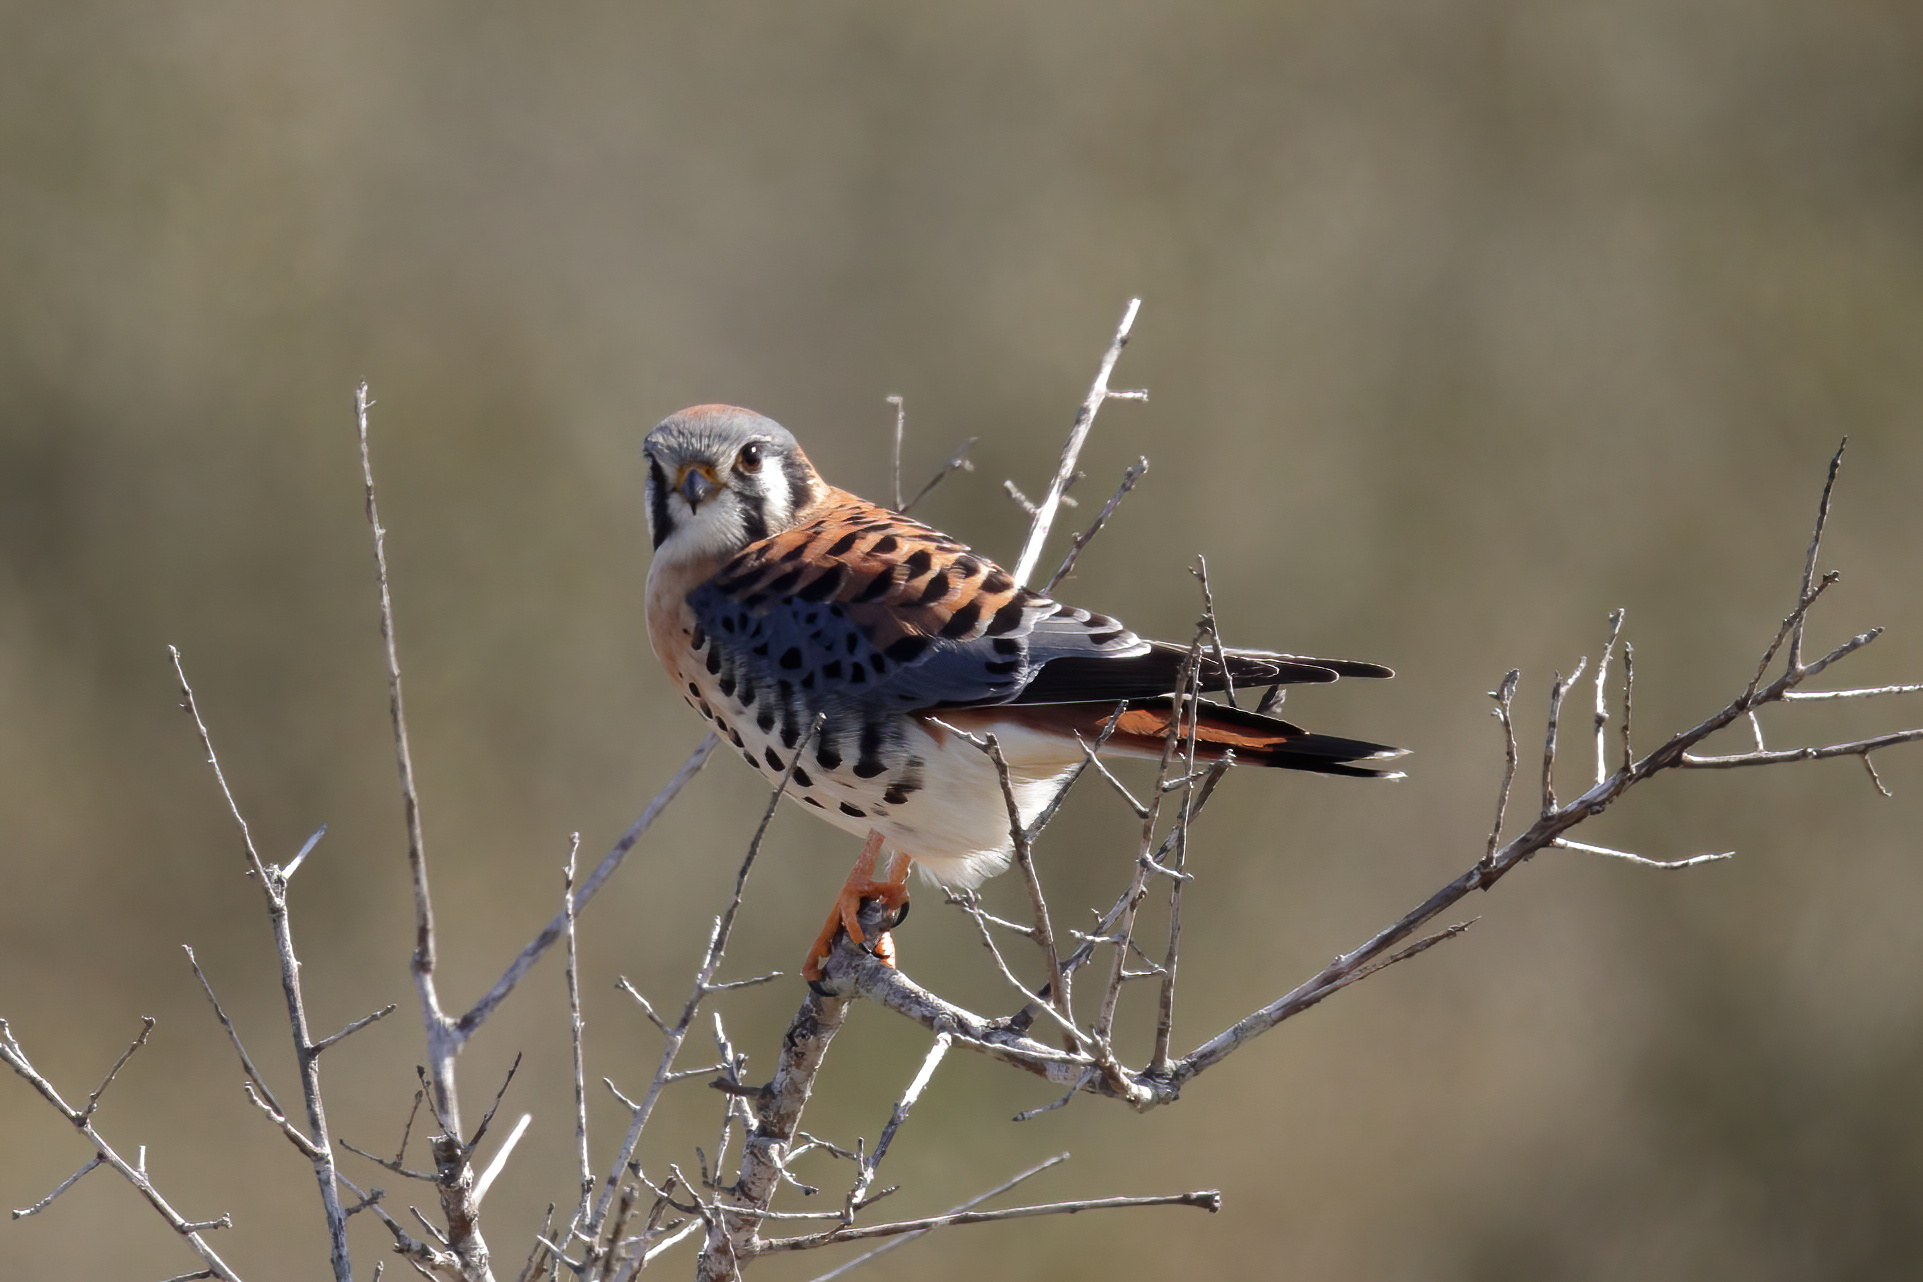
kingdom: Animalia
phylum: Chordata
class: Aves
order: Falconiformes
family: Falconidae
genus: Falco
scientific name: Falco sparverius
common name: American kestrel
